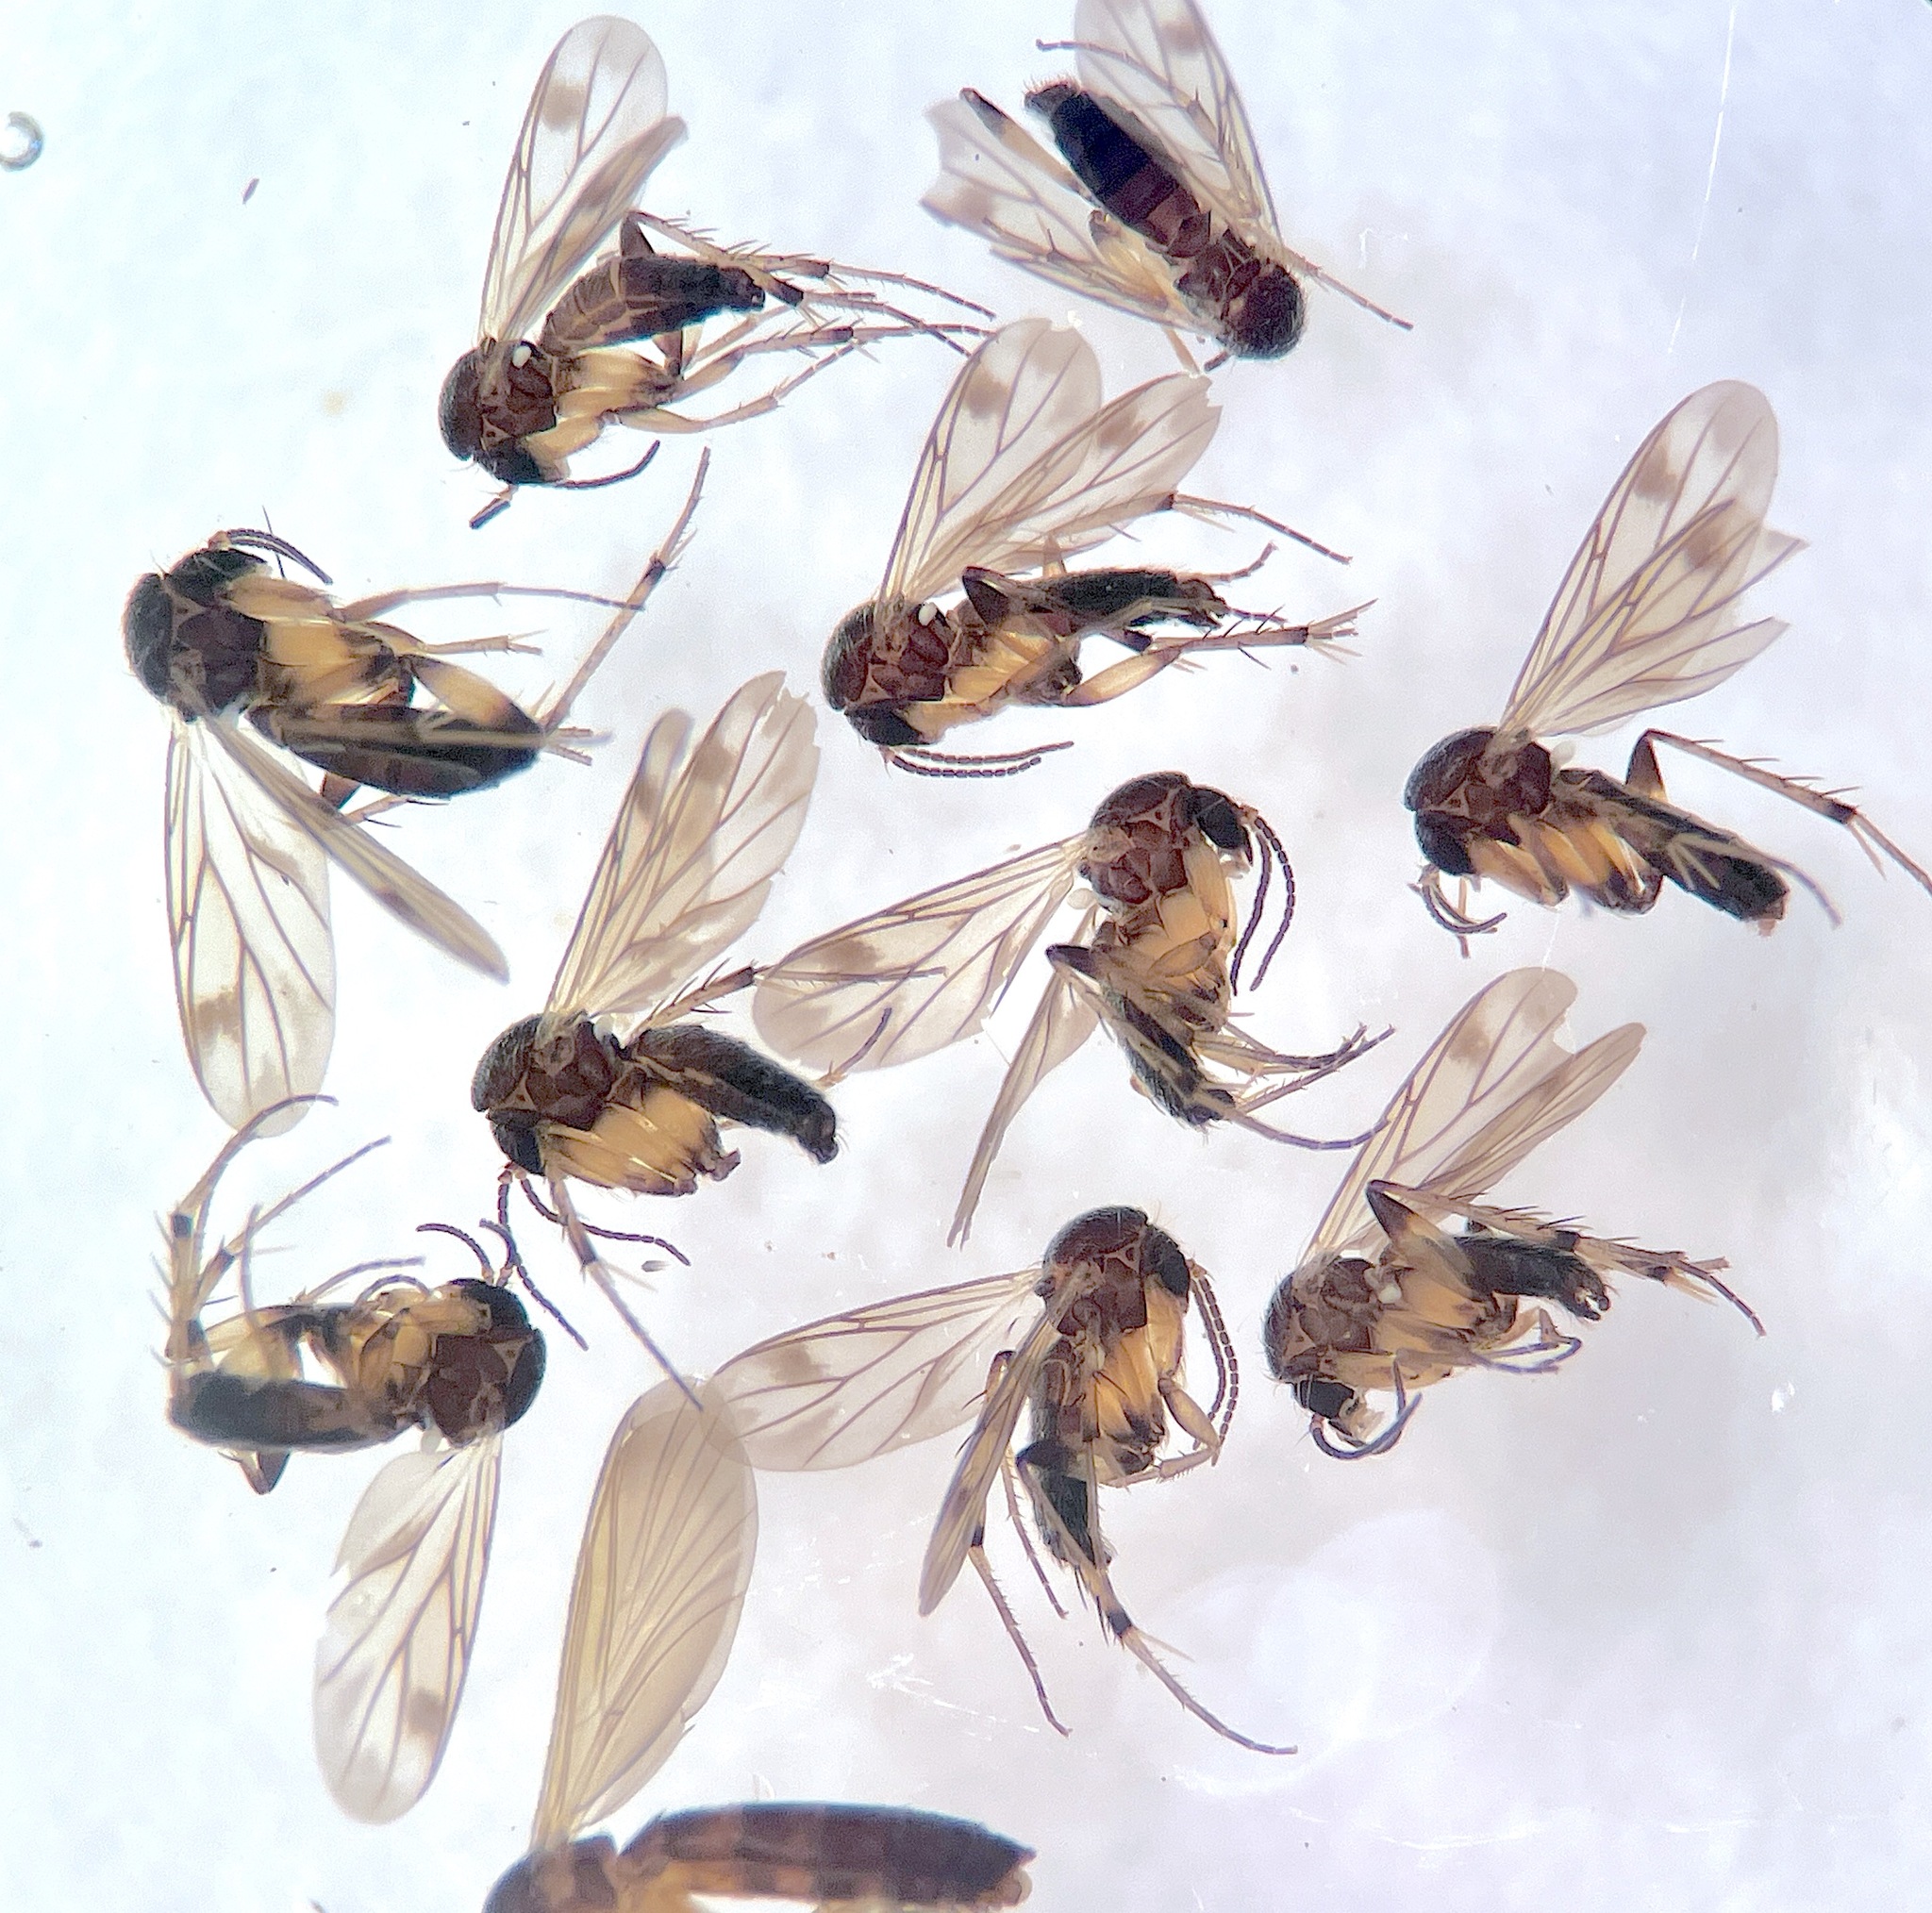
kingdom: Animalia
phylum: Arthropoda
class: Insecta
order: Diptera
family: Mycetophilidae
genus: Anomalomyia
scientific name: Anomalomyia minor
